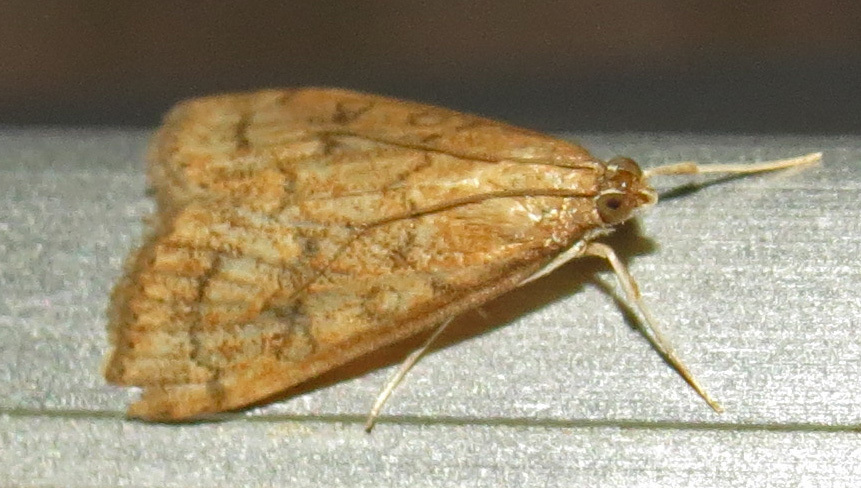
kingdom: Animalia
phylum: Arthropoda
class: Insecta
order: Lepidoptera
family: Crambidae
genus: Udea
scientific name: Udea rubigalis
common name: Celery leaftier moth
